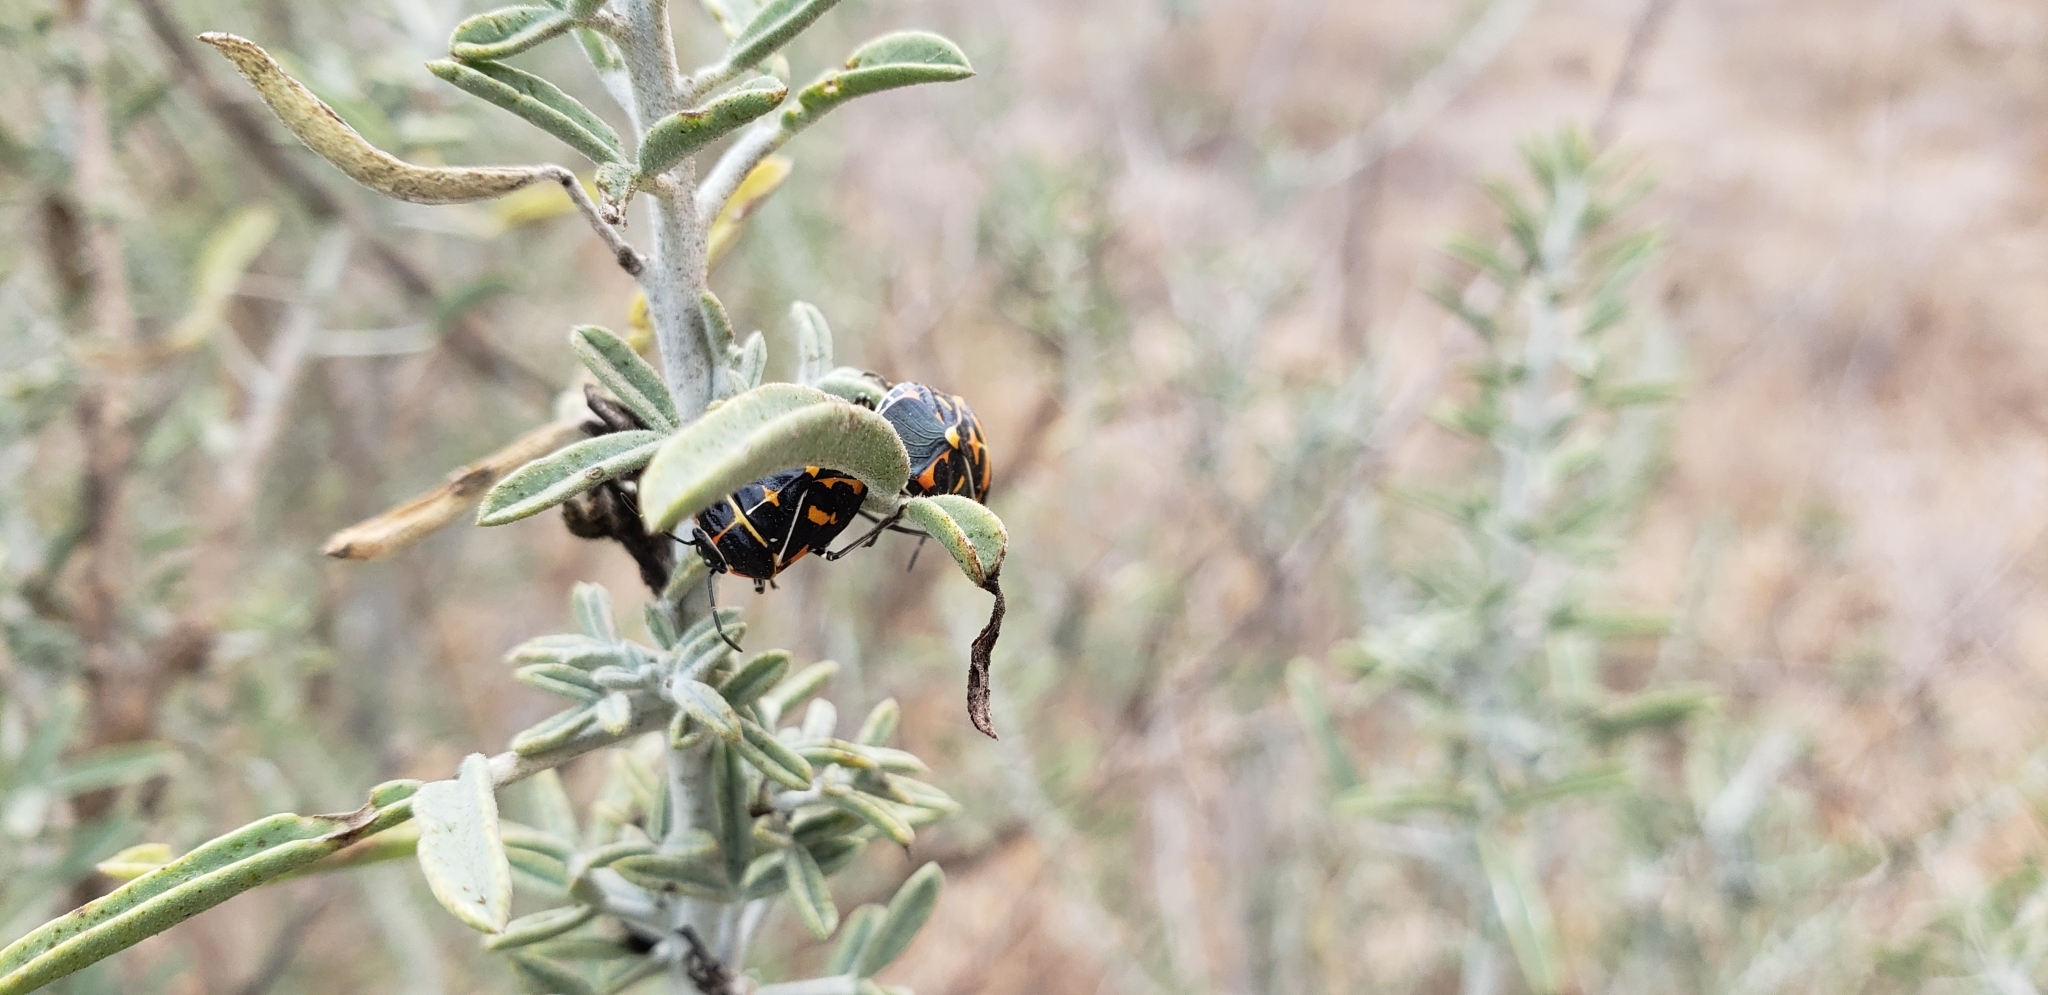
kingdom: Animalia
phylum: Arthropoda
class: Insecta
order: Hemiptera
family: Pentatomidae
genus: Murgantia
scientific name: Murgantia histrionica
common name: Harlequin bug
